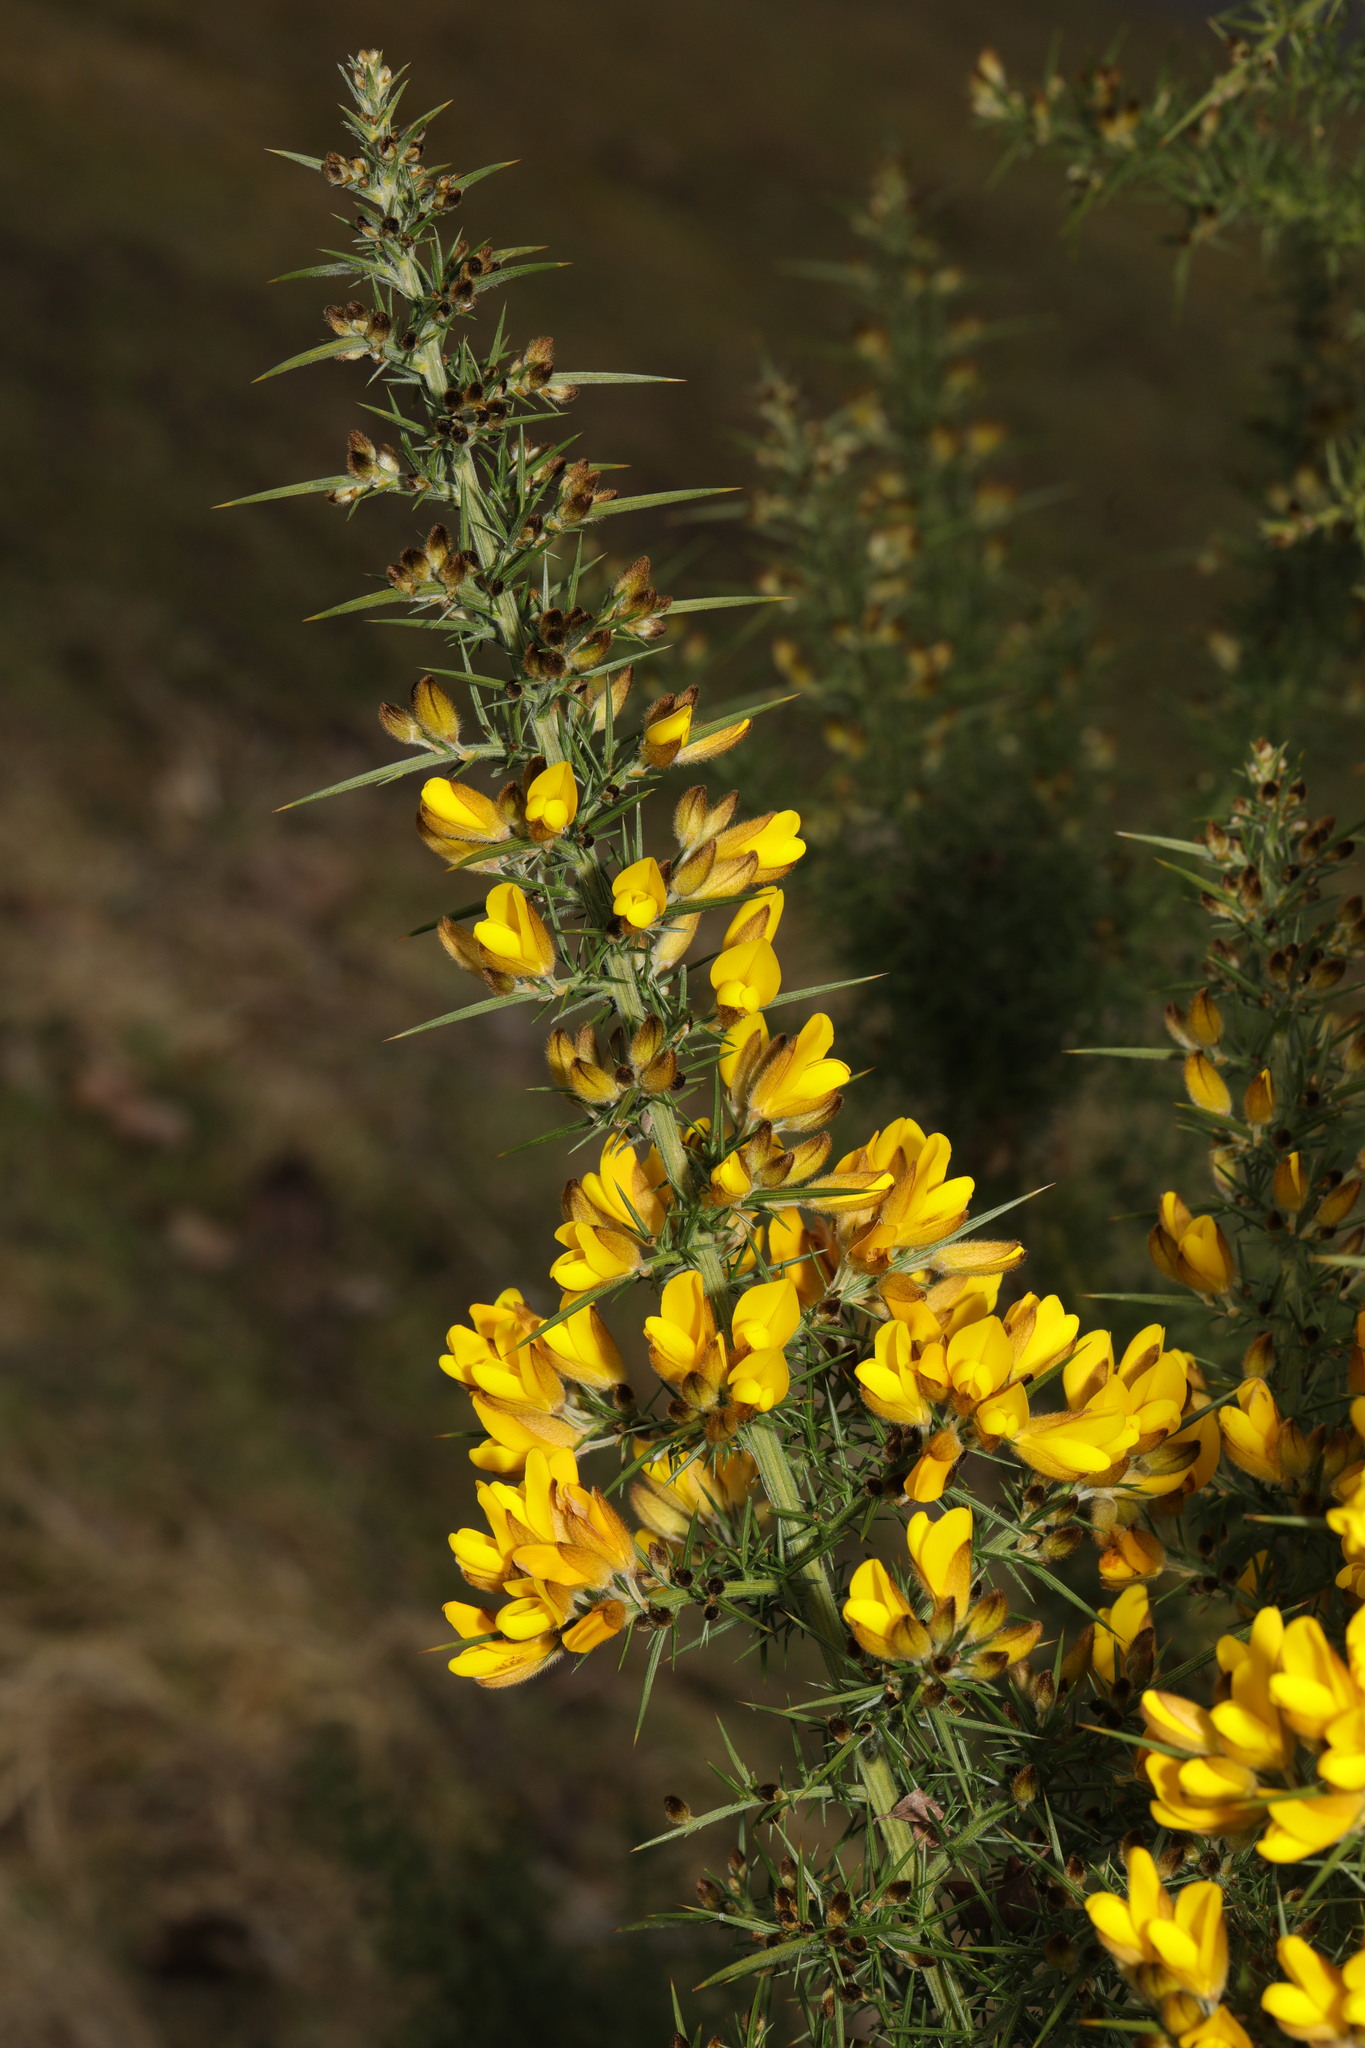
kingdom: Plantae
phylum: Tracheophyta
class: Magnoliopsida
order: Fabales
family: Fabaceae
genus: Ulex
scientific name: Ulex europaeus
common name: Common gorse
